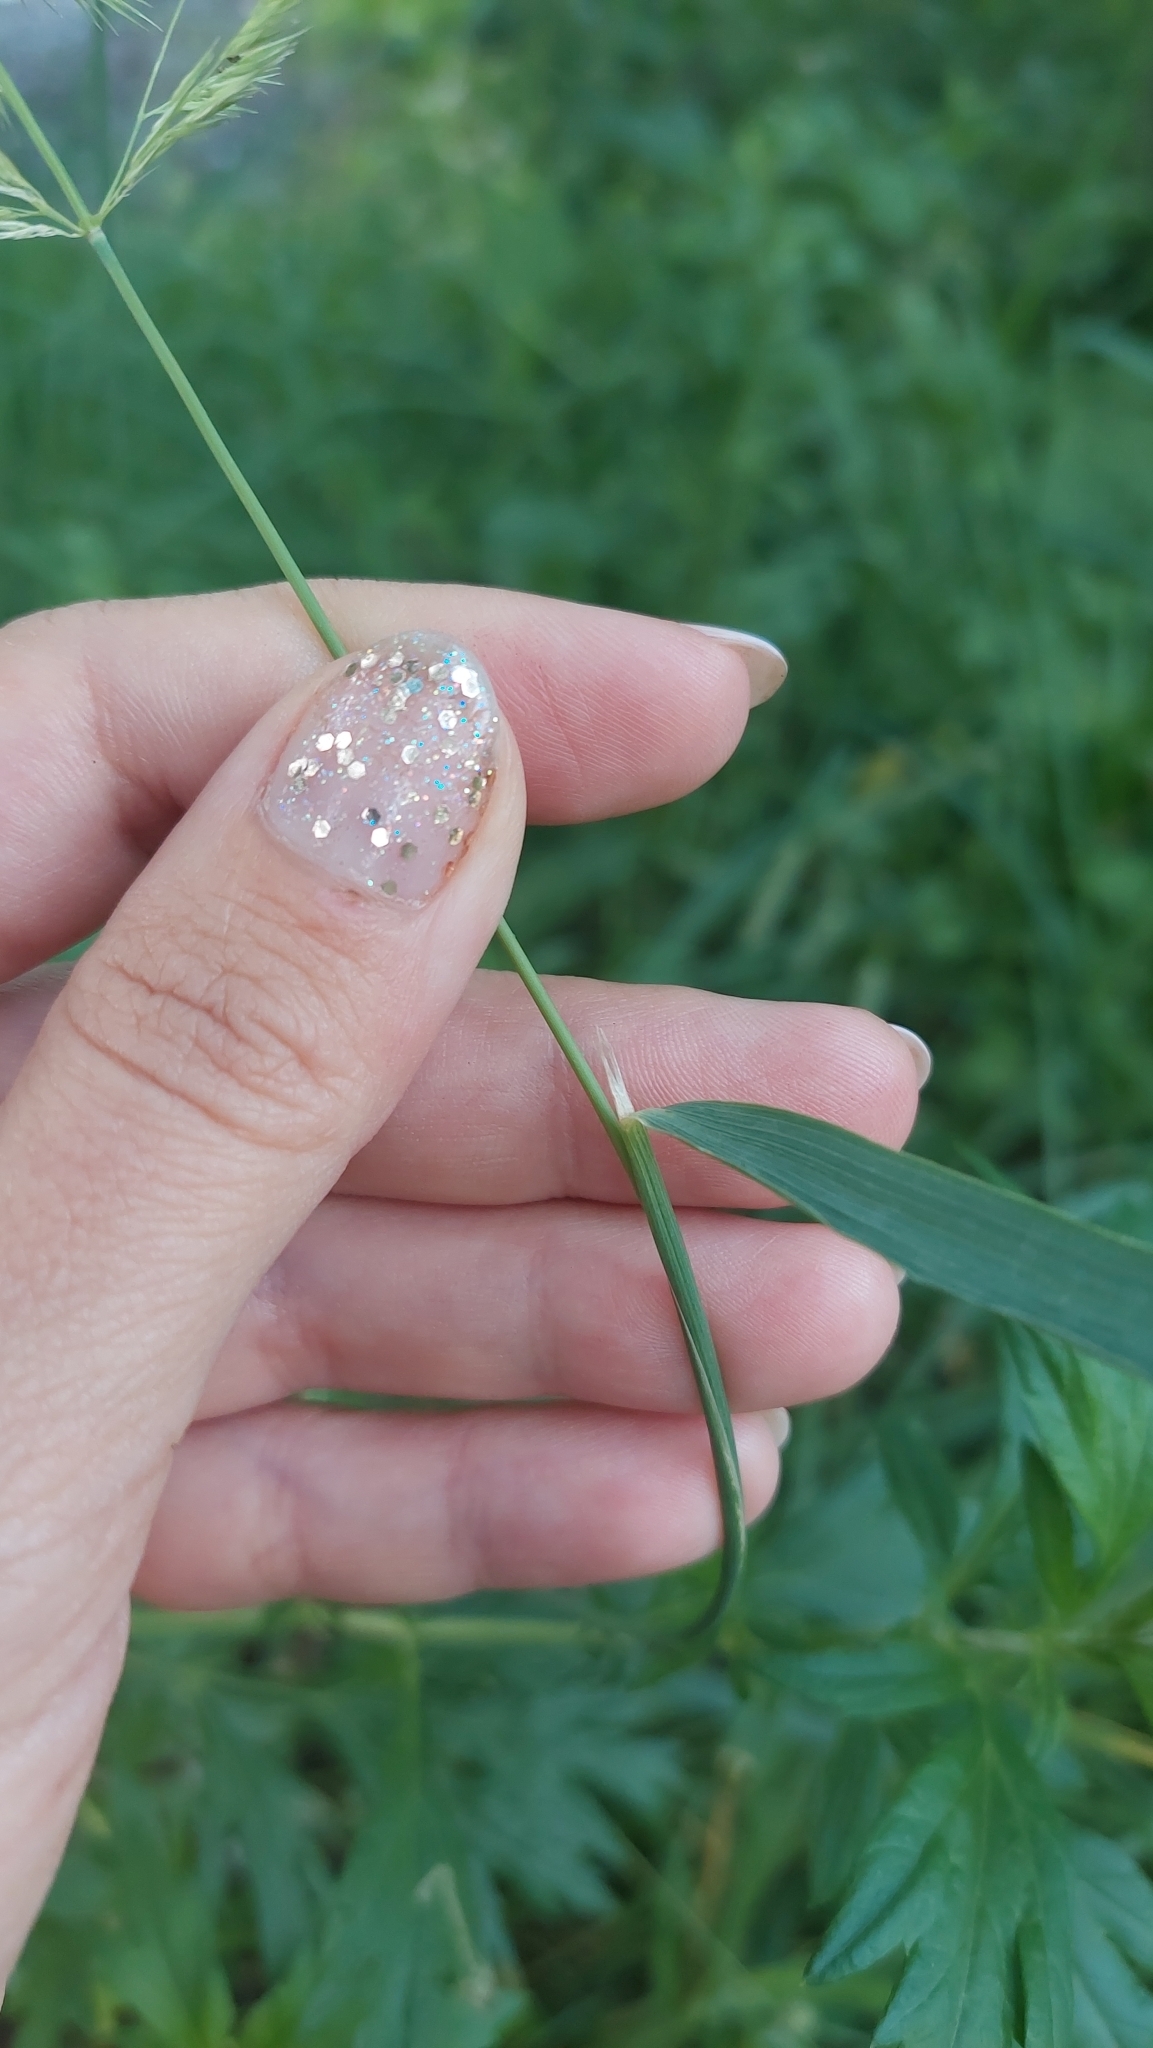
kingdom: Plantae
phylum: Tracheophyta
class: Liliopsida
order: Poales
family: Poaceae
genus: Calamagrostis
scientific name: Calamagrostis epigejos
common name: Wood small-reed
